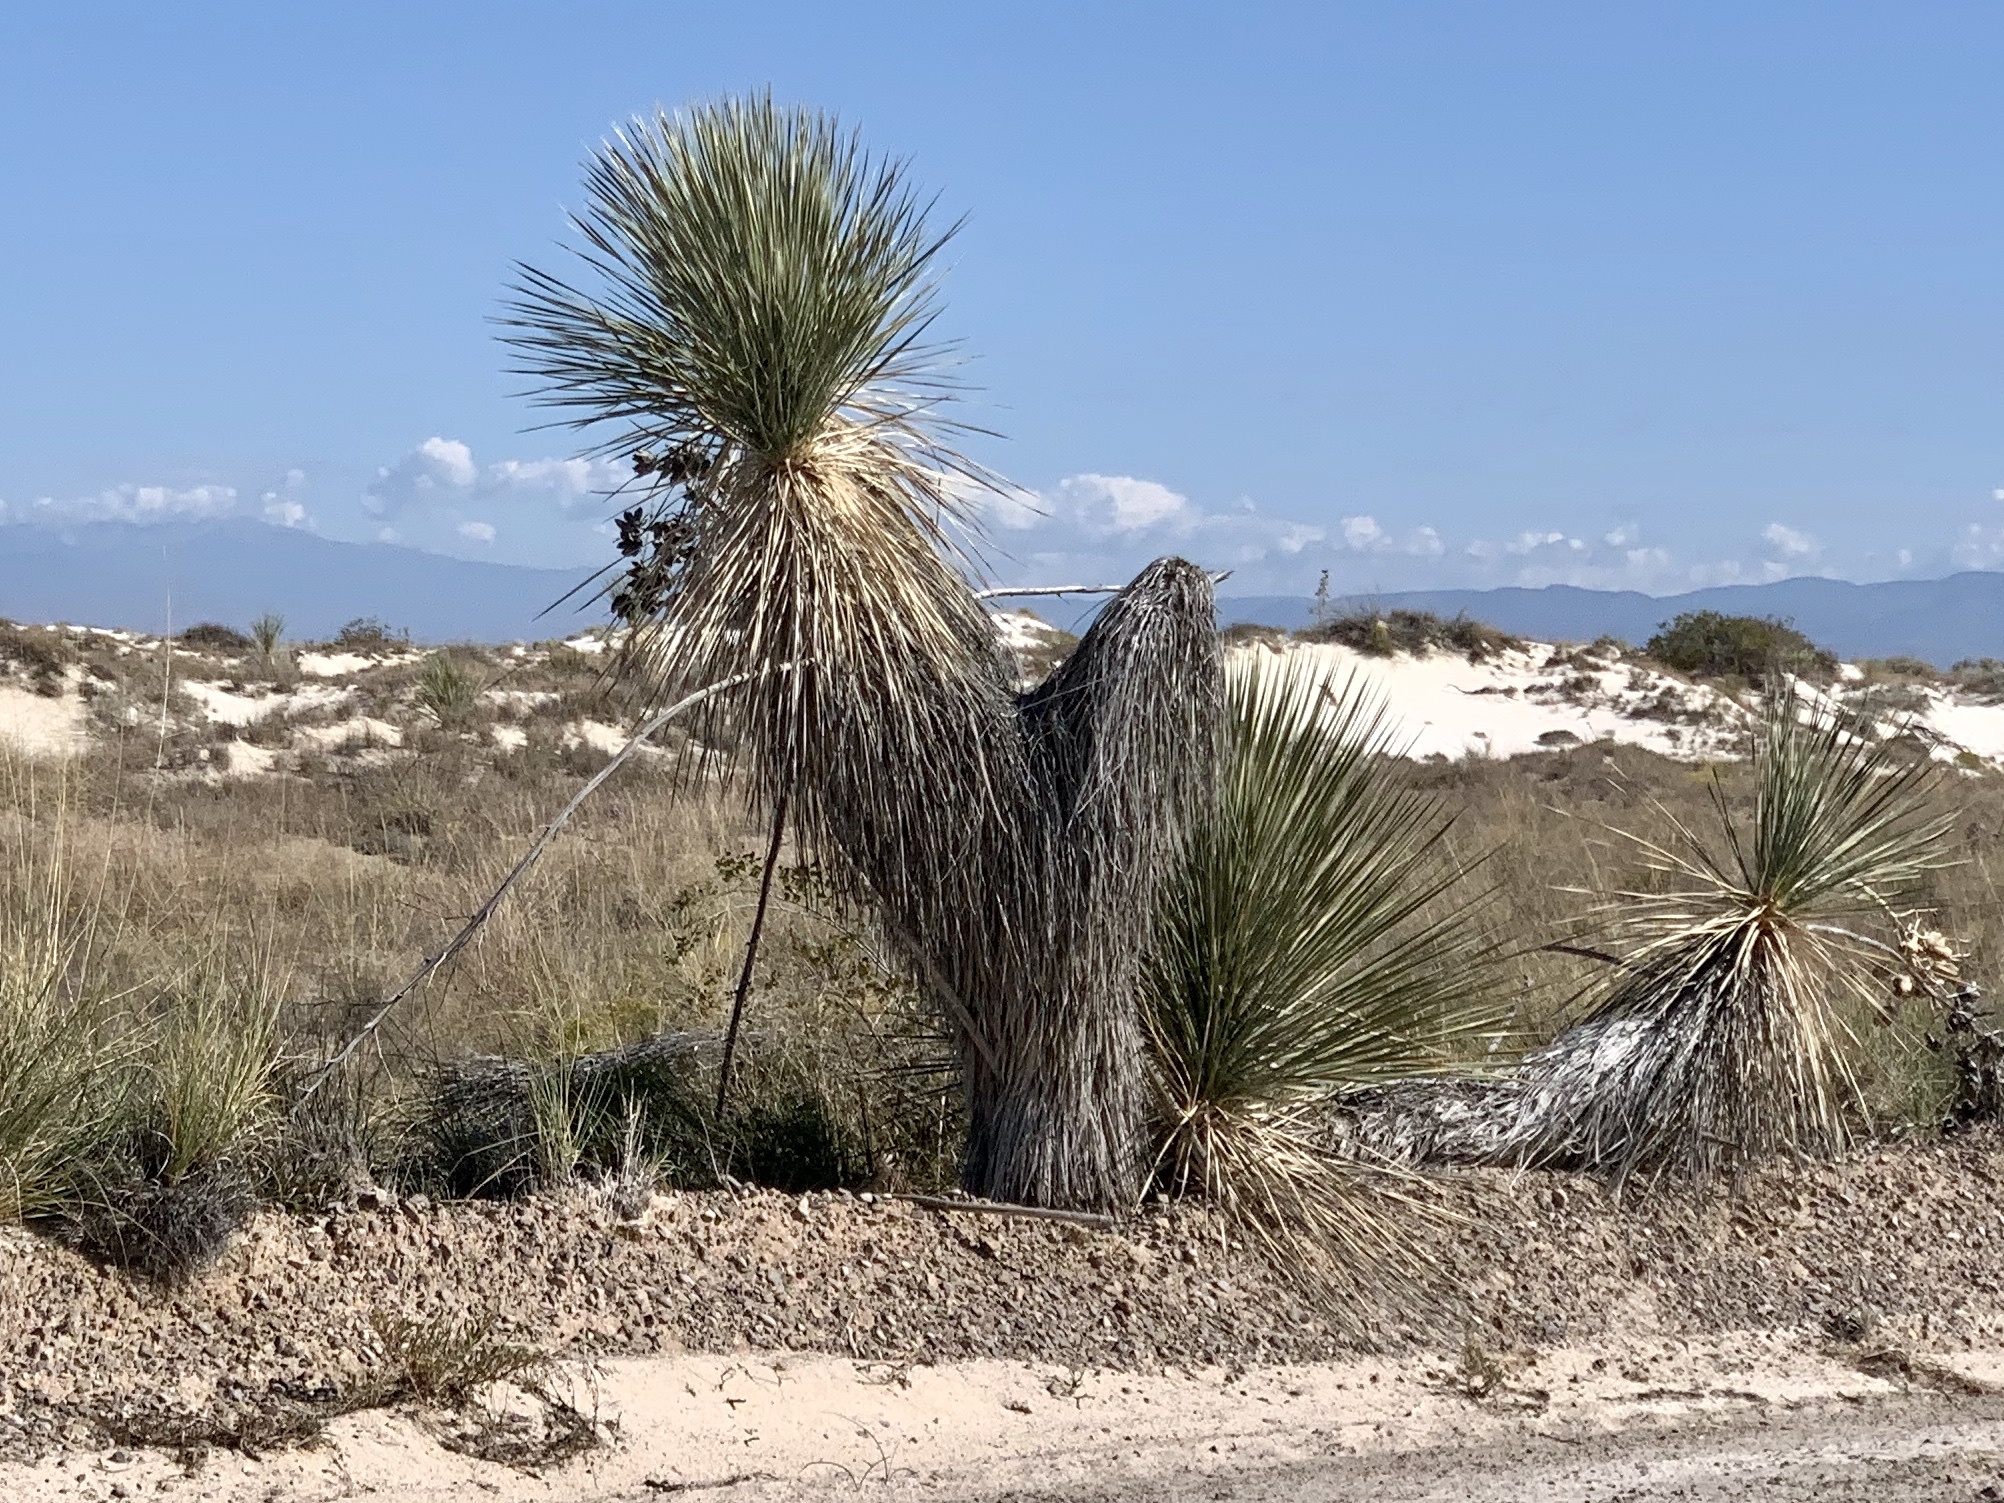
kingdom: Plantae
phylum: Tracheophyta
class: Liliopsida
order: Asparagales
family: Asparagaceae
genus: Yucca
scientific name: Yucca elata
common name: Palmella
